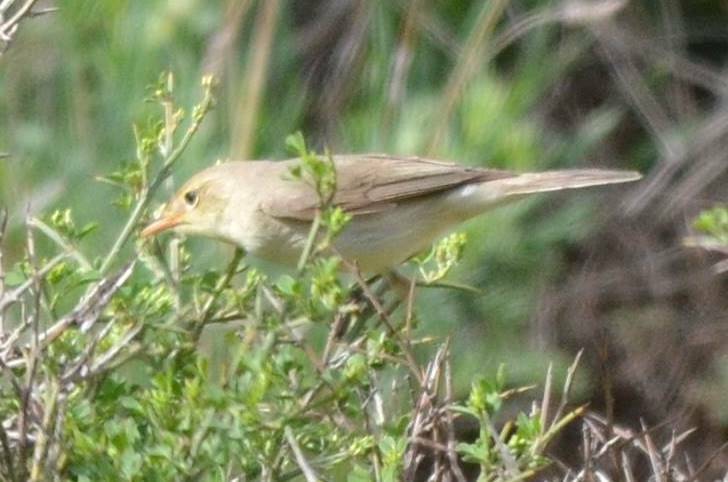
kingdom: Animalia
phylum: Chordata
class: Aves
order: Passeriformes
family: Acrocephalidae
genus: Hippolais
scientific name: Hippolais polyglotta
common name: Melodious warbler
